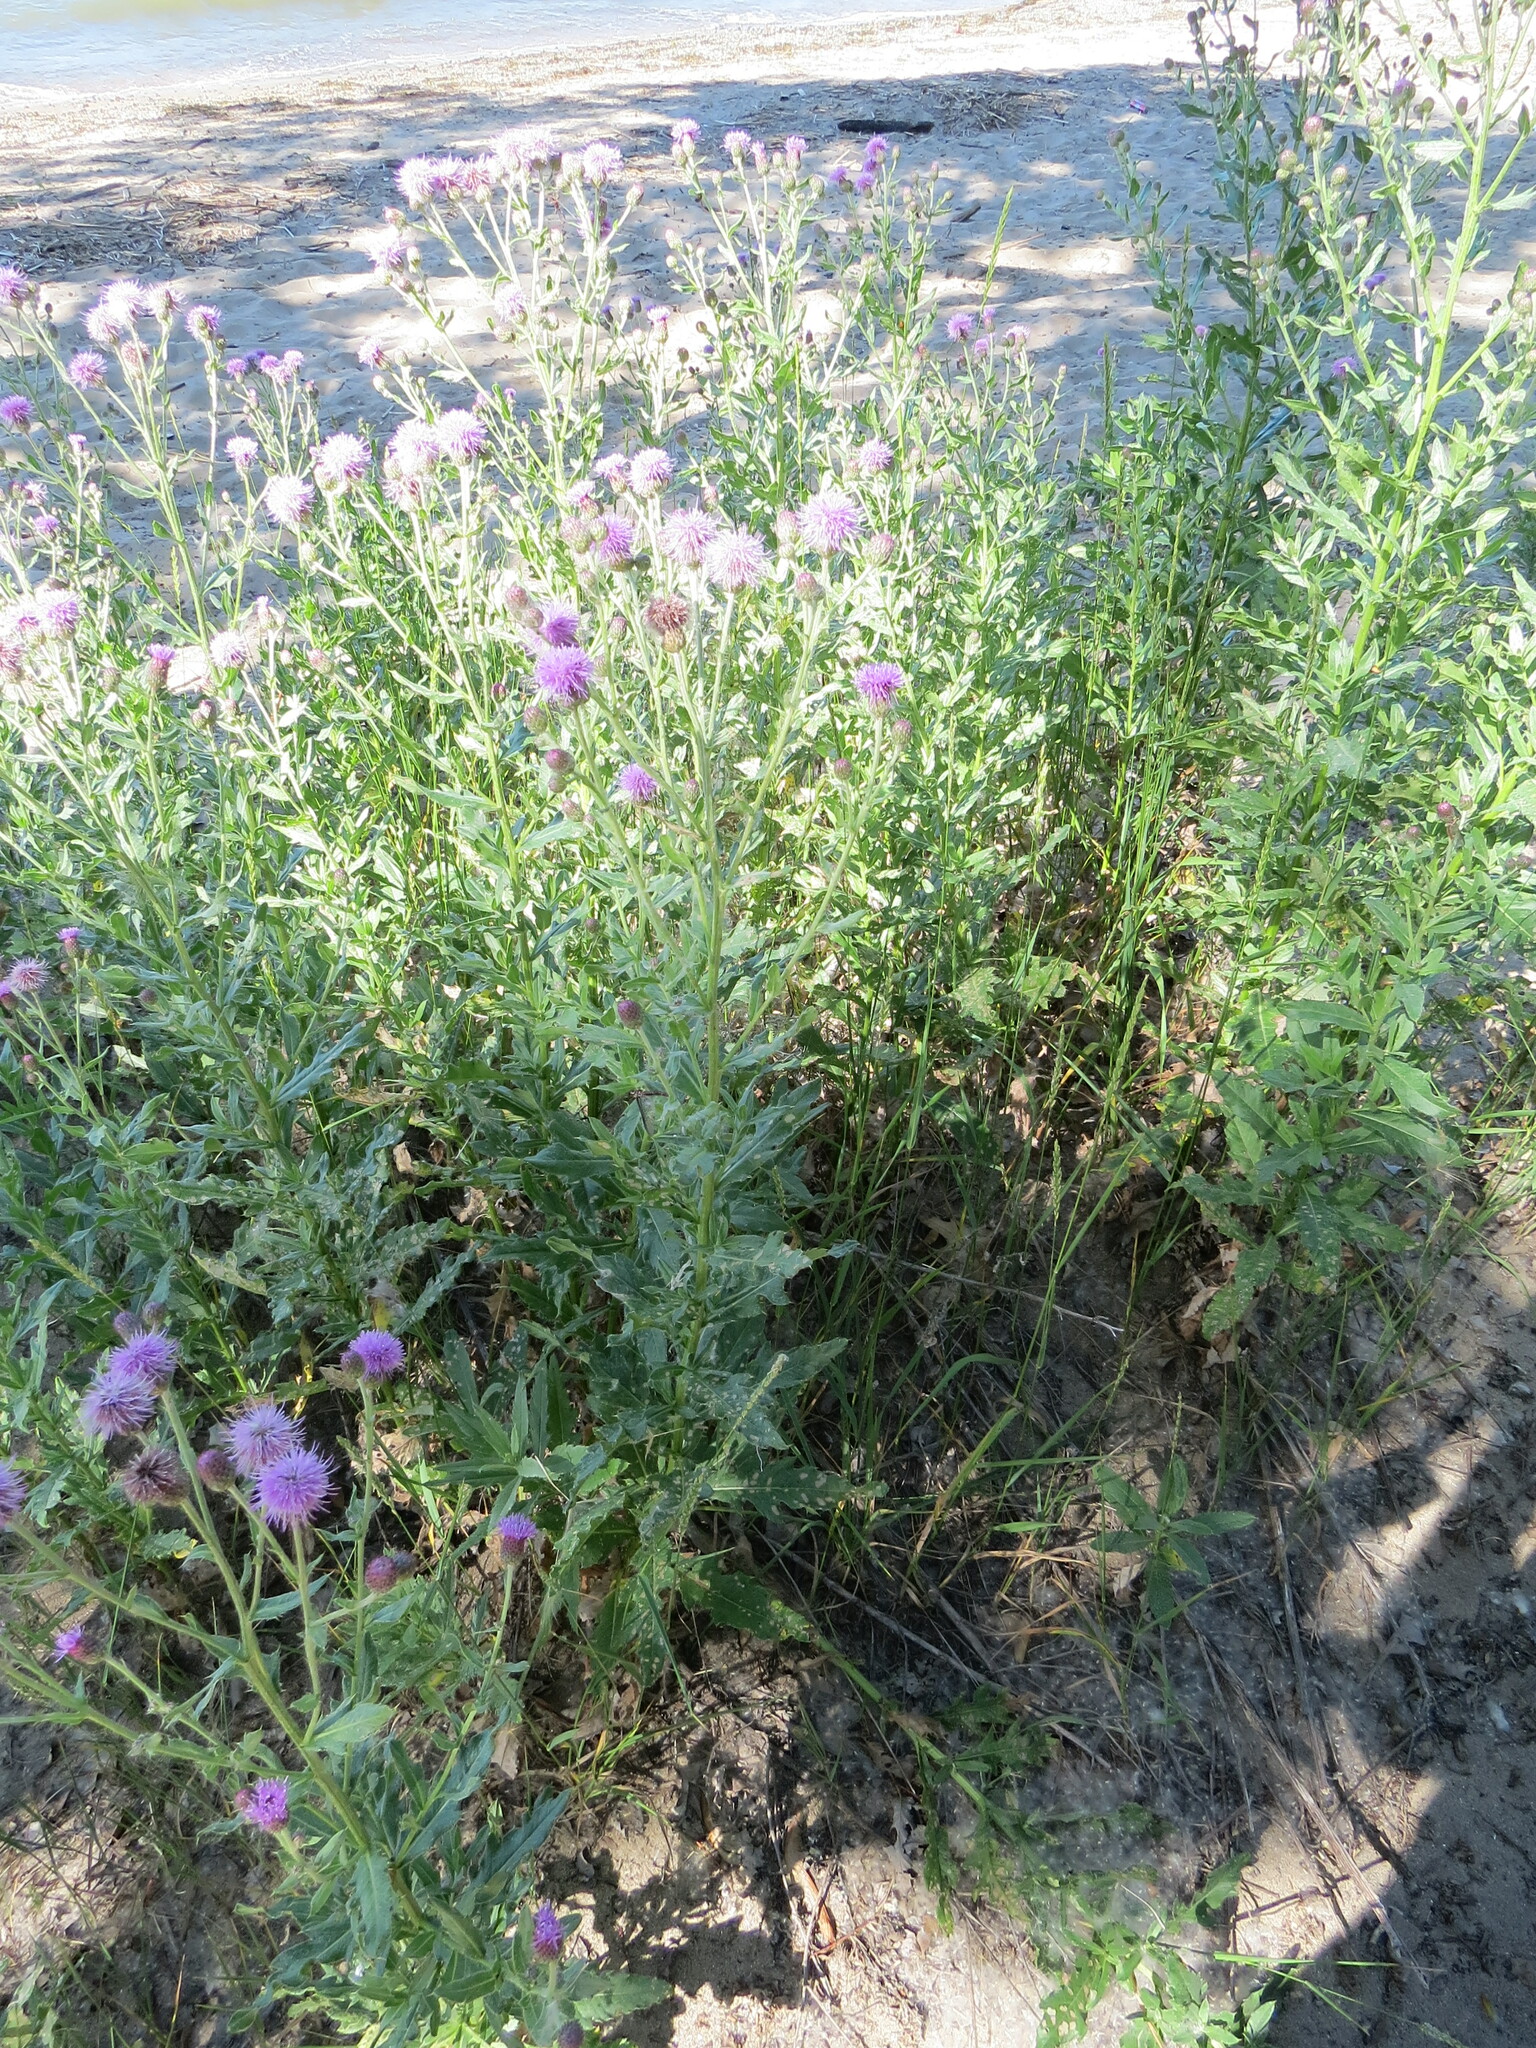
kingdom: Plantae
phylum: Tracheophyta
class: Magnoliopsida
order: Asterales
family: Asteraceae
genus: Cirsium
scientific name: Cirsium arvense
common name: Creeping thistle
